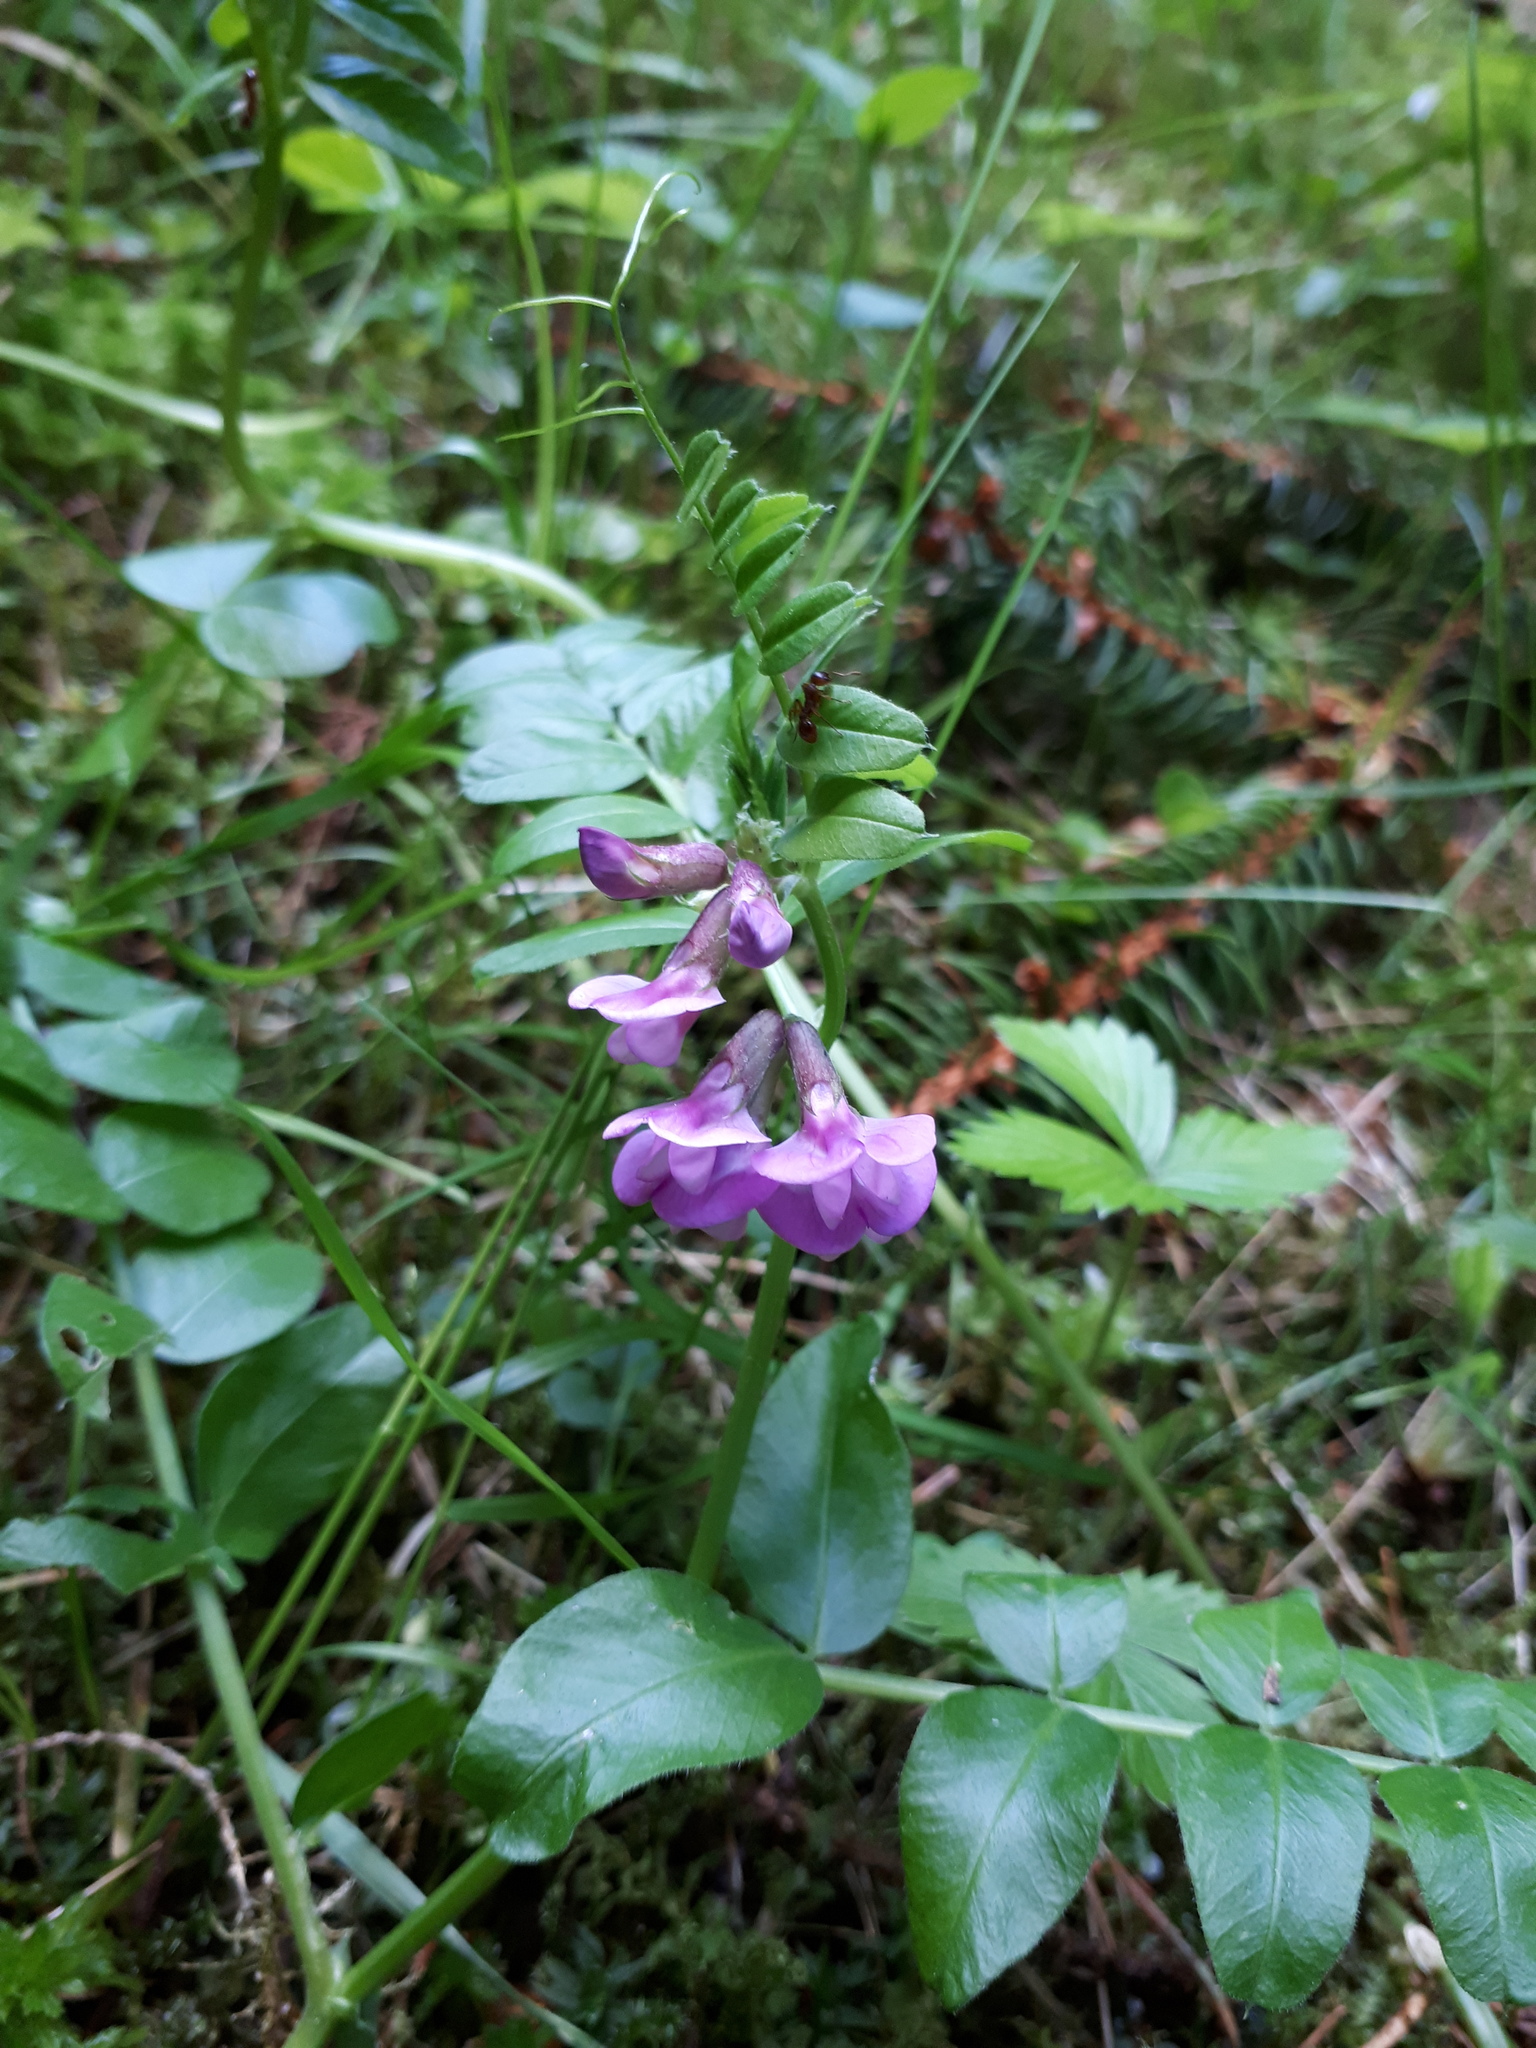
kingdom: Plantae
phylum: Tracheophyta
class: Magnoliopsida
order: Fabales
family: Fabaceae
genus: Vicia
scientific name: Vicia sepium
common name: Bush vetch
